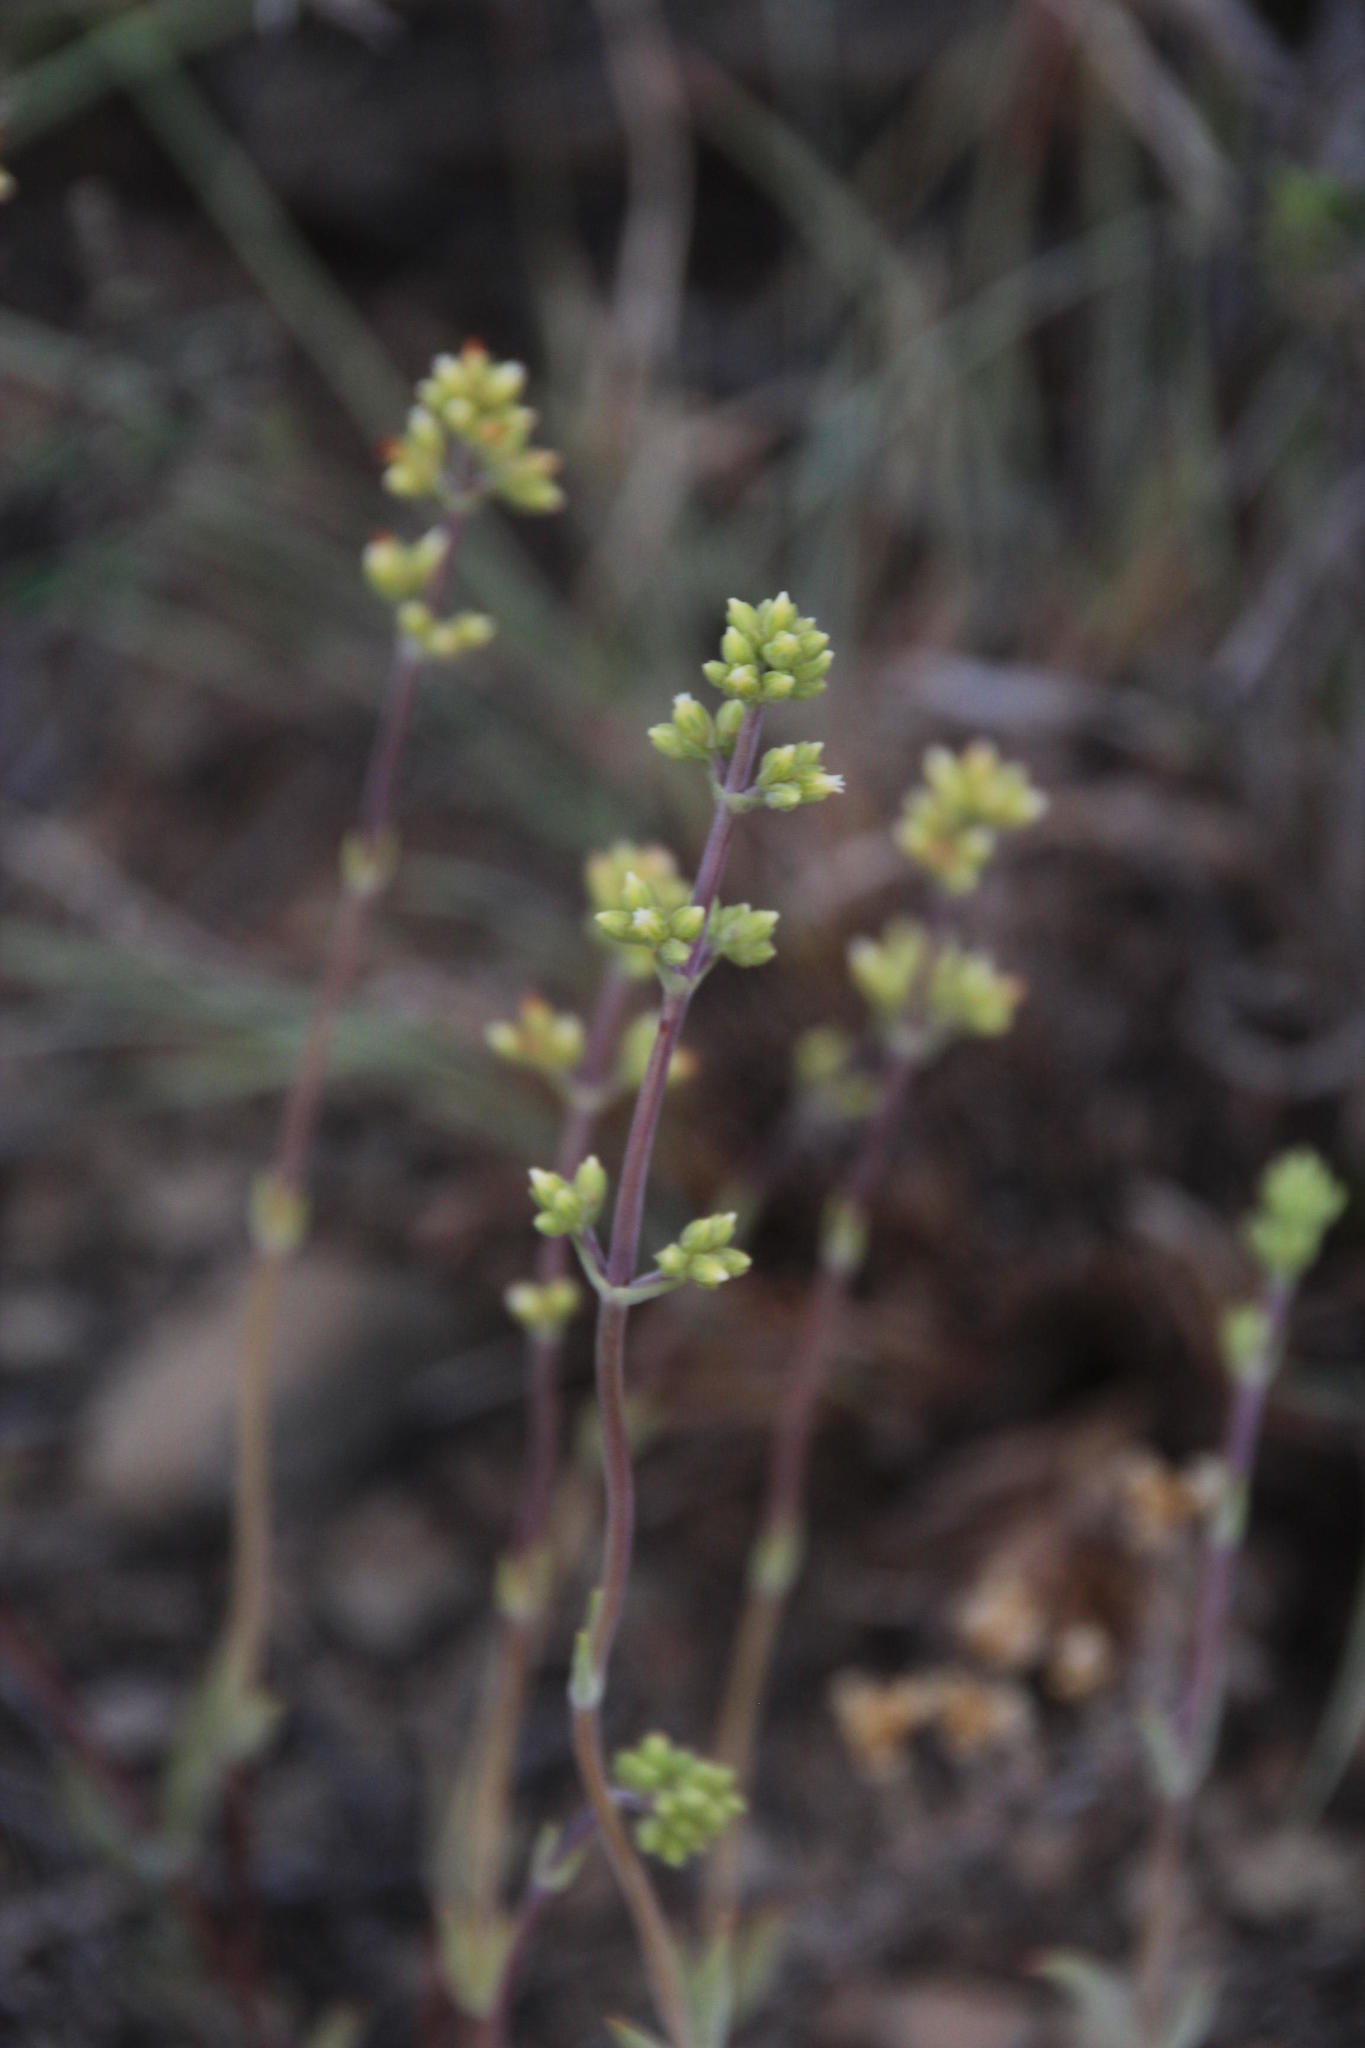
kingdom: Plantae
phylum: Tracheophyta
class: Magnoliopsida
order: Saxifragales
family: Crassulaceae
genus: Crassula
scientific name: Crassula subaphylla
